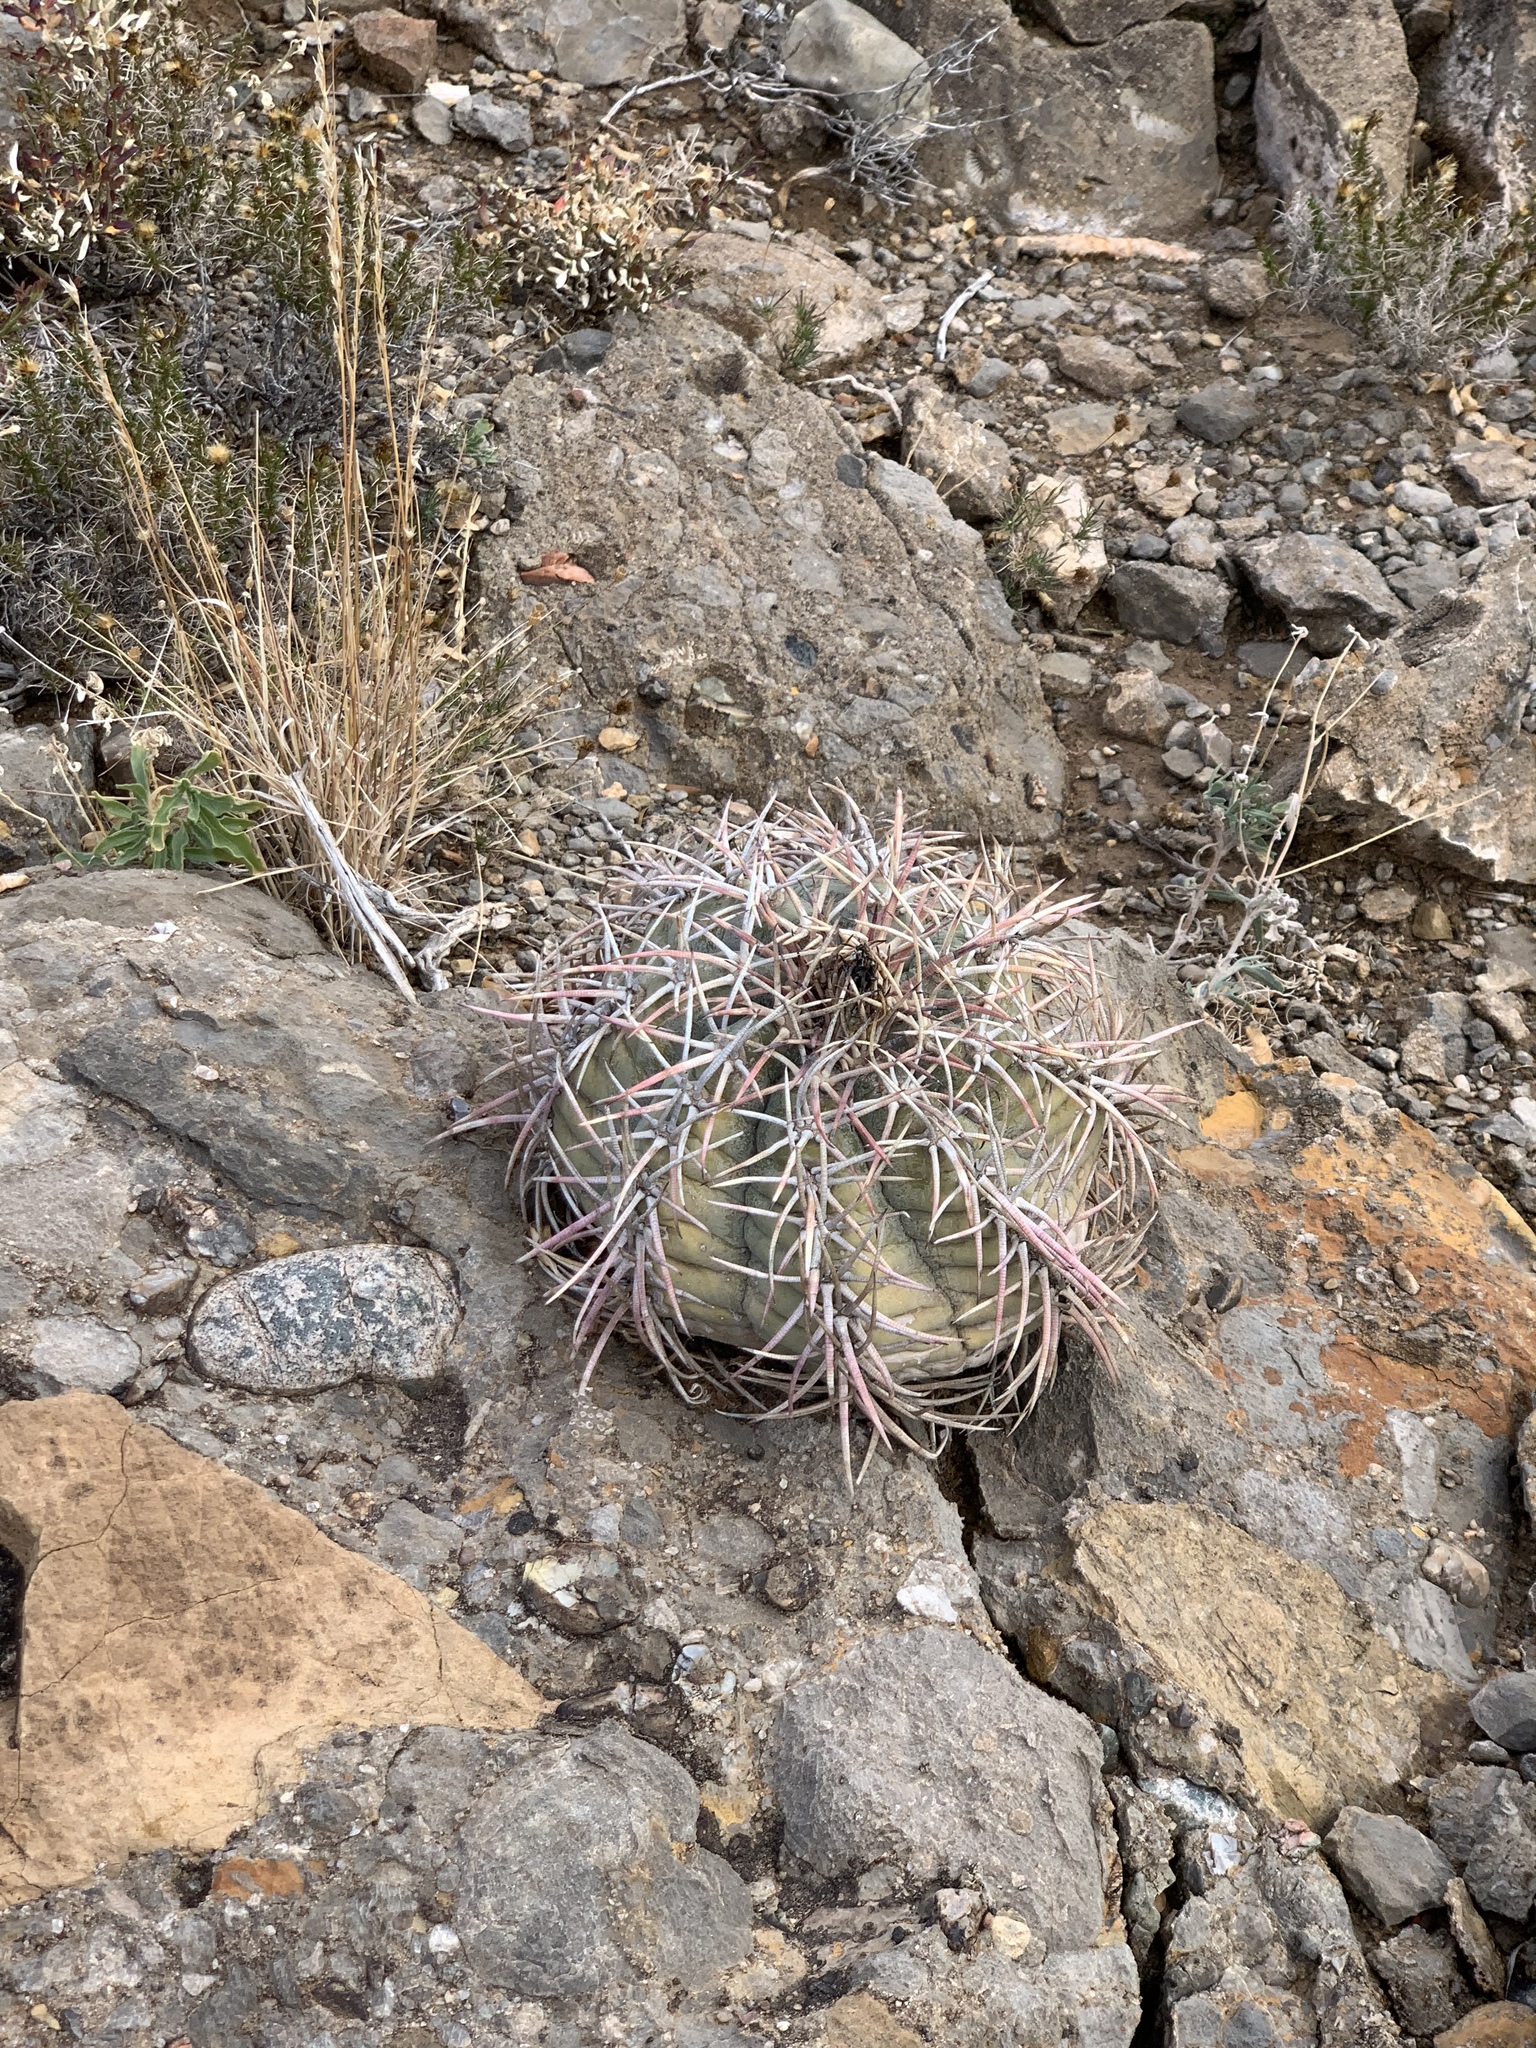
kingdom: Plantae
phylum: Tracheophyta
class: Magnoliopsida
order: Caryophyllales
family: Cactaceae
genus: Echinocactus
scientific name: Echinocactus horizonthalonius
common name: Devilshead
